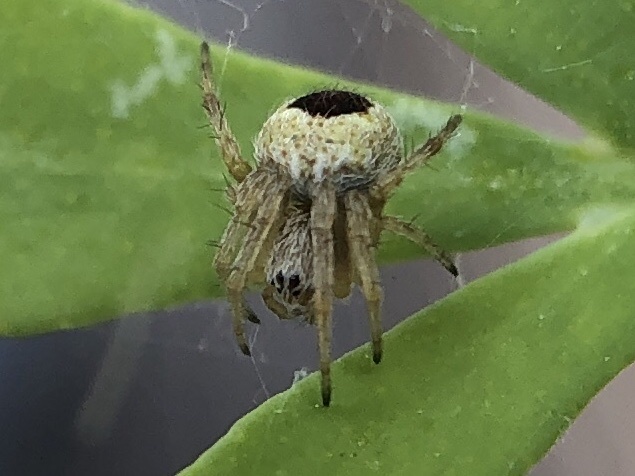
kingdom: Animalia
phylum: Arthropoda
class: Arachnida
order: Araneae
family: Araneidae
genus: Agalenatea
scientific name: Agalenatea redii
